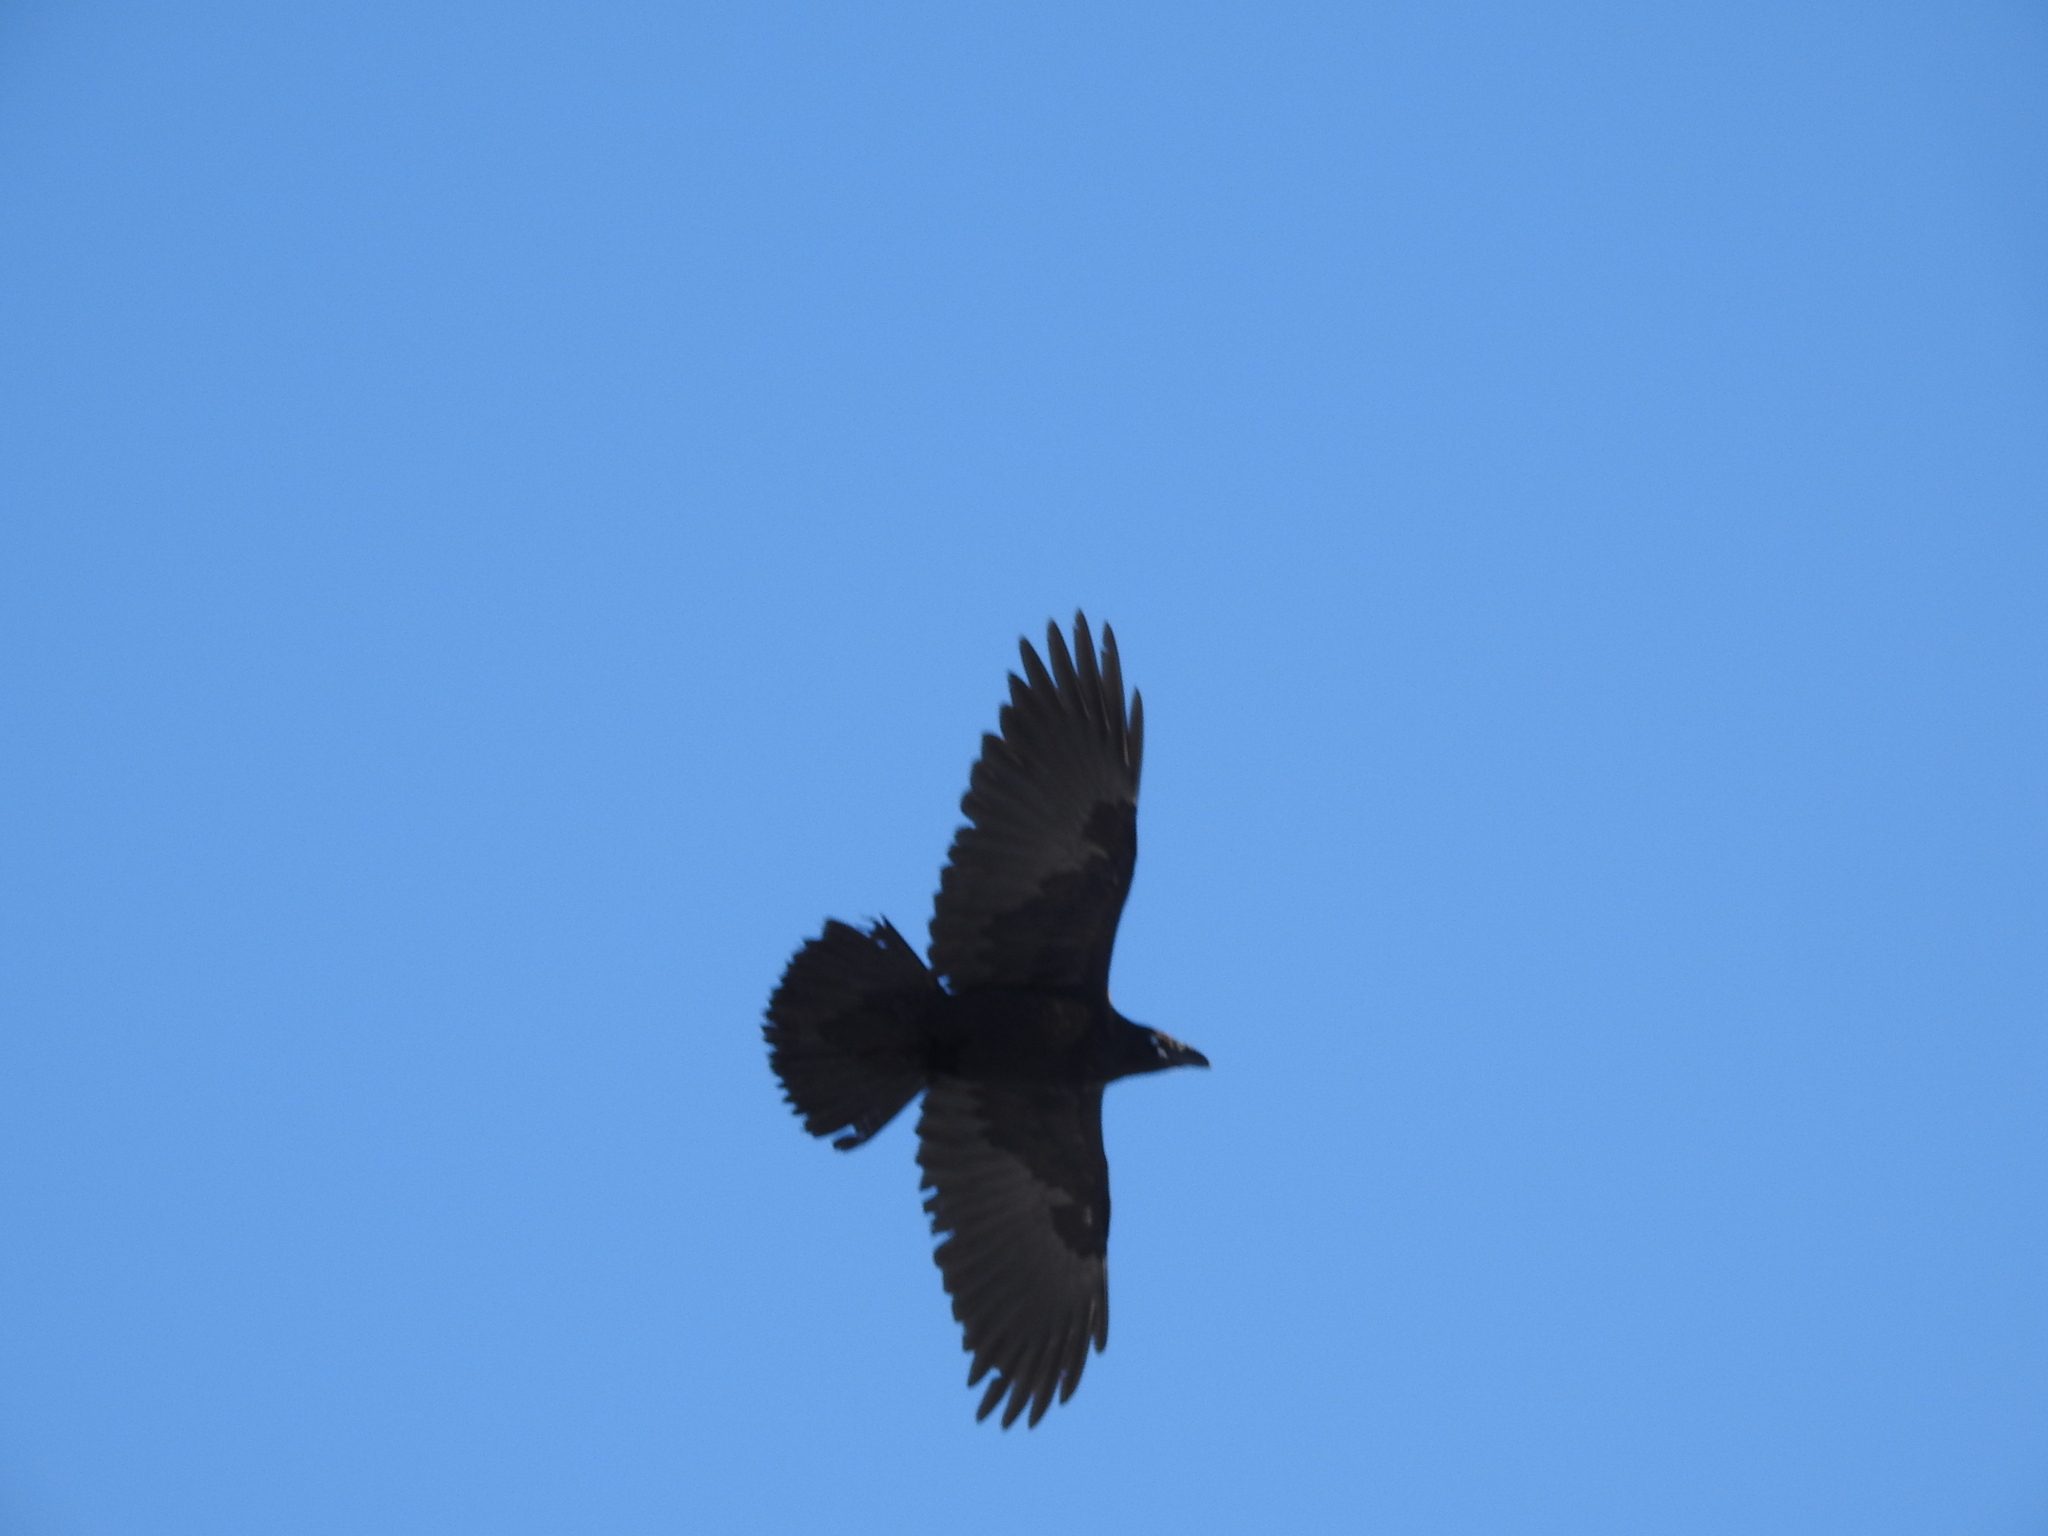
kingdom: Animalia
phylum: Chordata
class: Aves
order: Passeriformes
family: Corvidae
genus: Corvus
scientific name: Corvus corax
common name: Common raven
